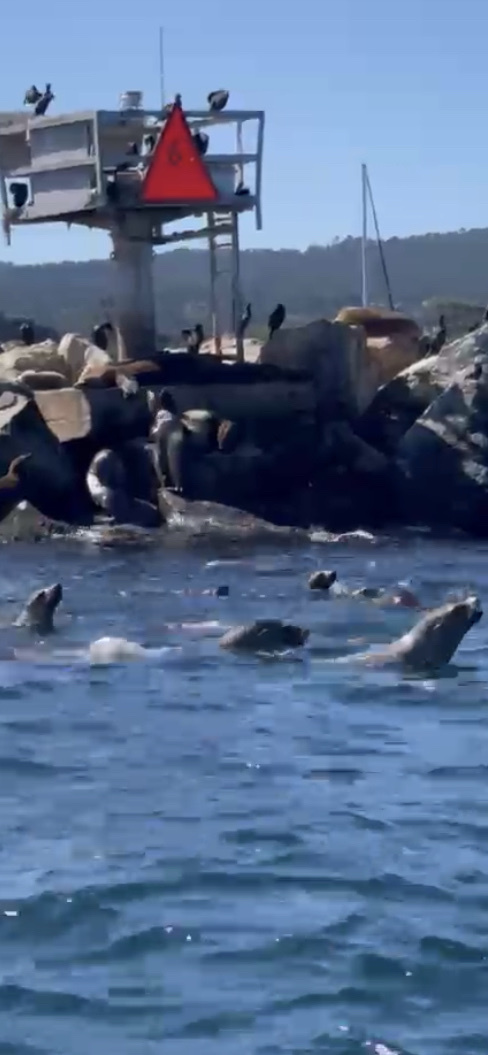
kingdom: Animalia
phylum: Chordata
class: Mammalia
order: Carnivora
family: Otariidae
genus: Zalophus
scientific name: Zalophus californianus
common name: California sea lion
